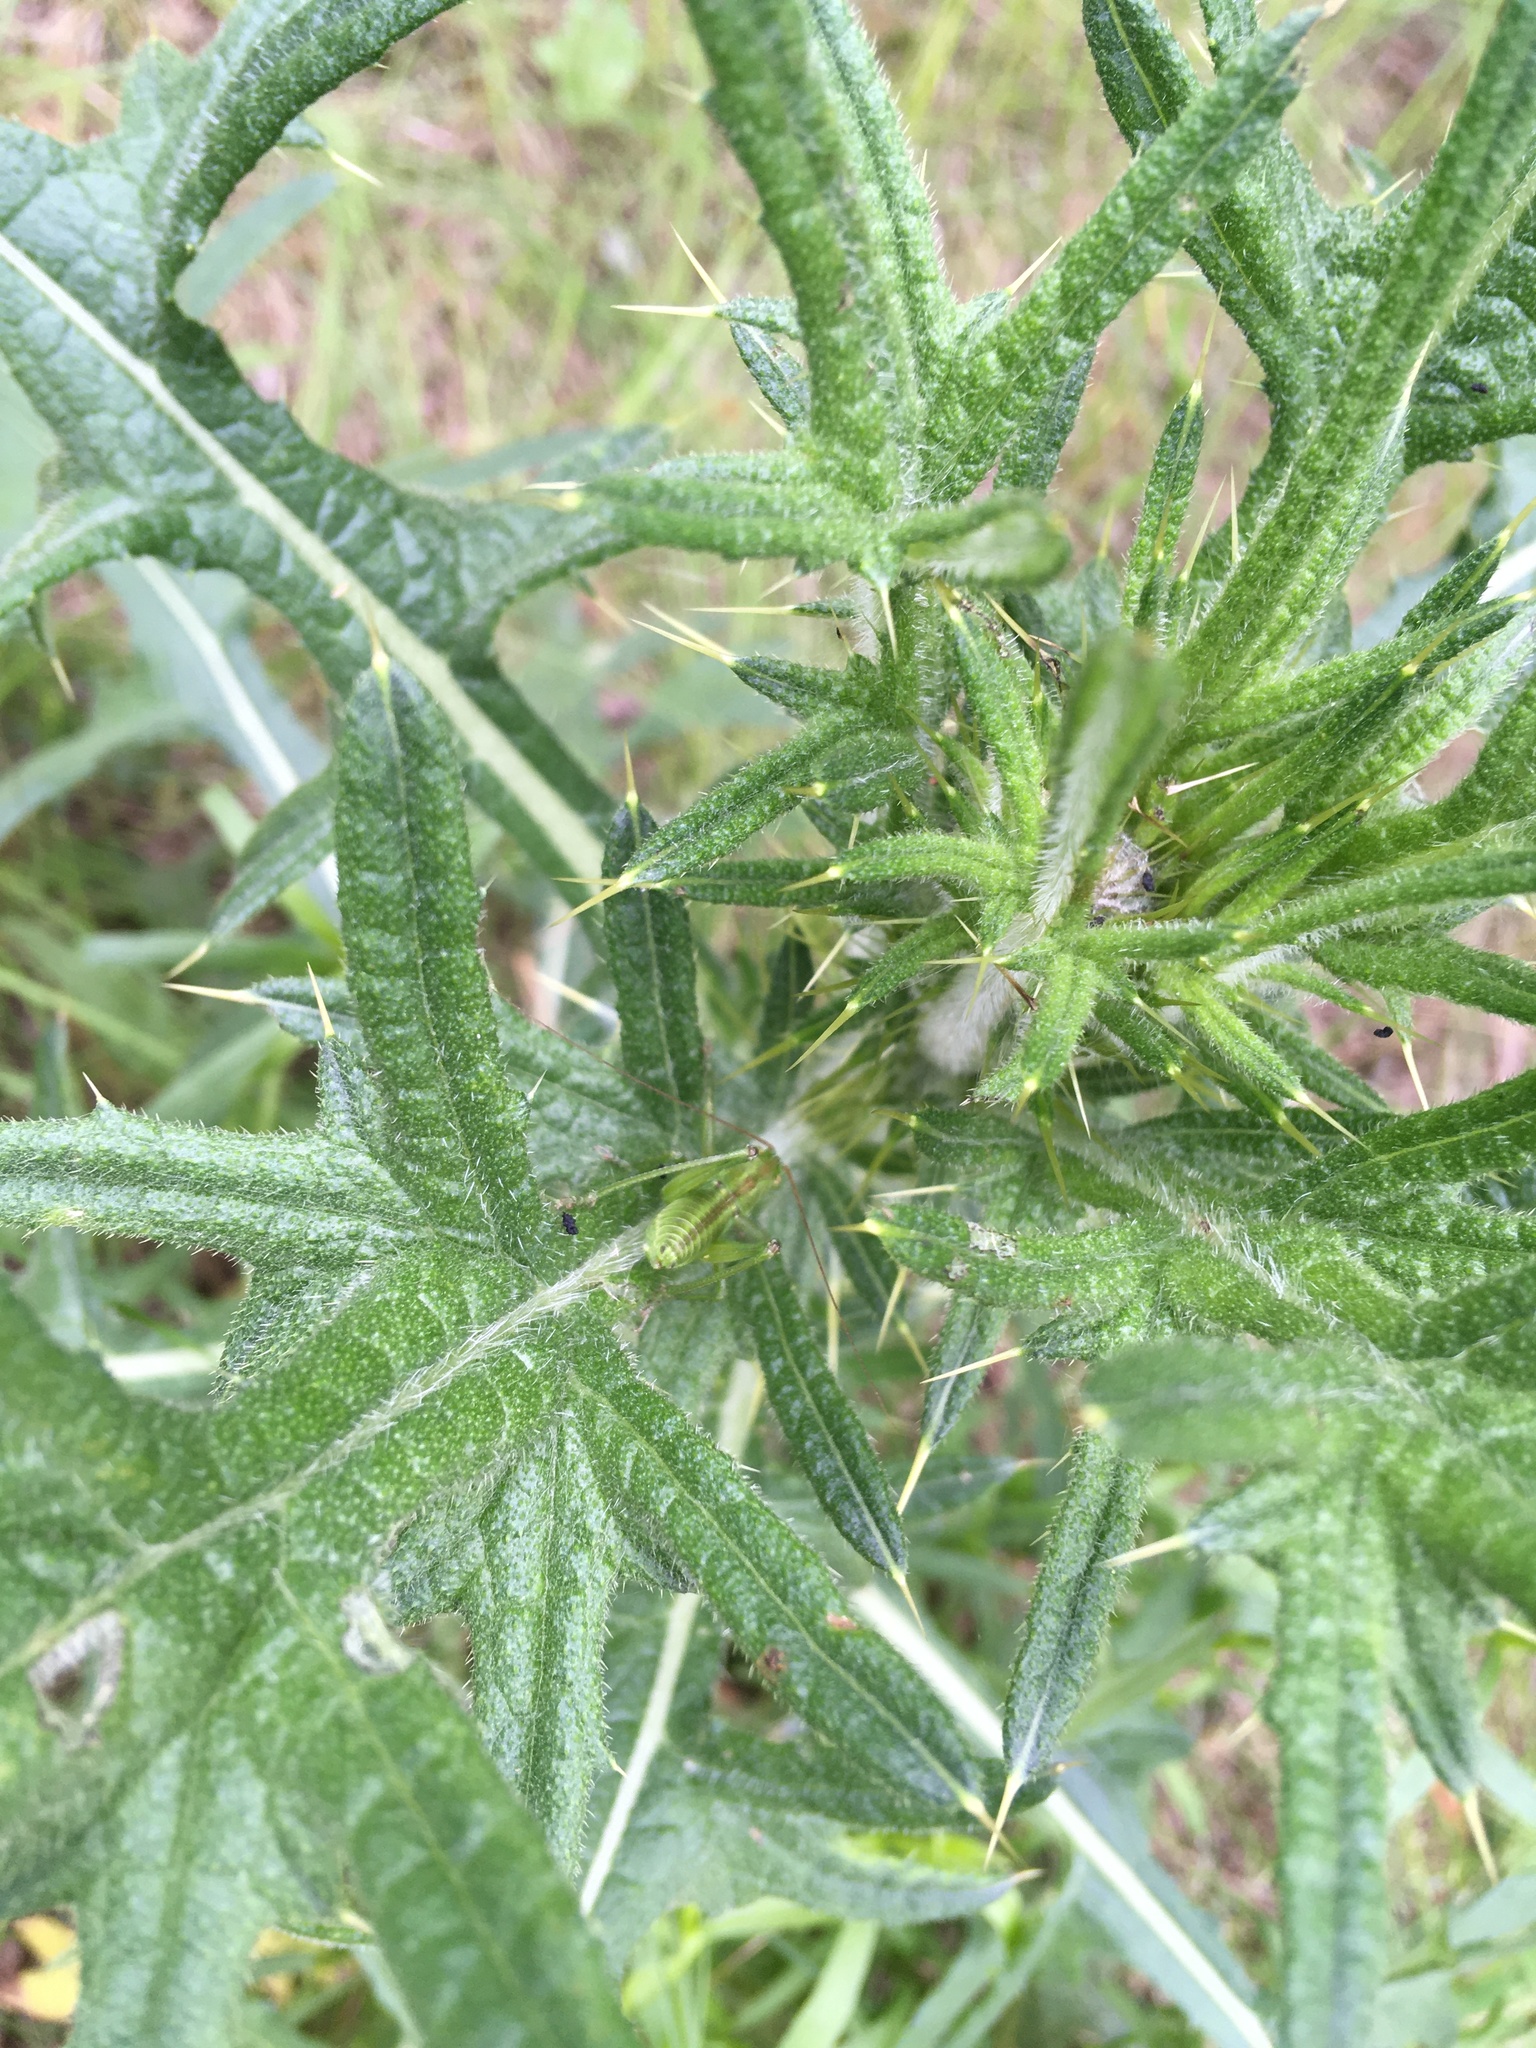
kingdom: Plantae
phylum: Tracheophyta
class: Magnoliopsida
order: Asterales
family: Asteraceae
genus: Cirsium
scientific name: Cirsium vulgare
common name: Bull thistle
